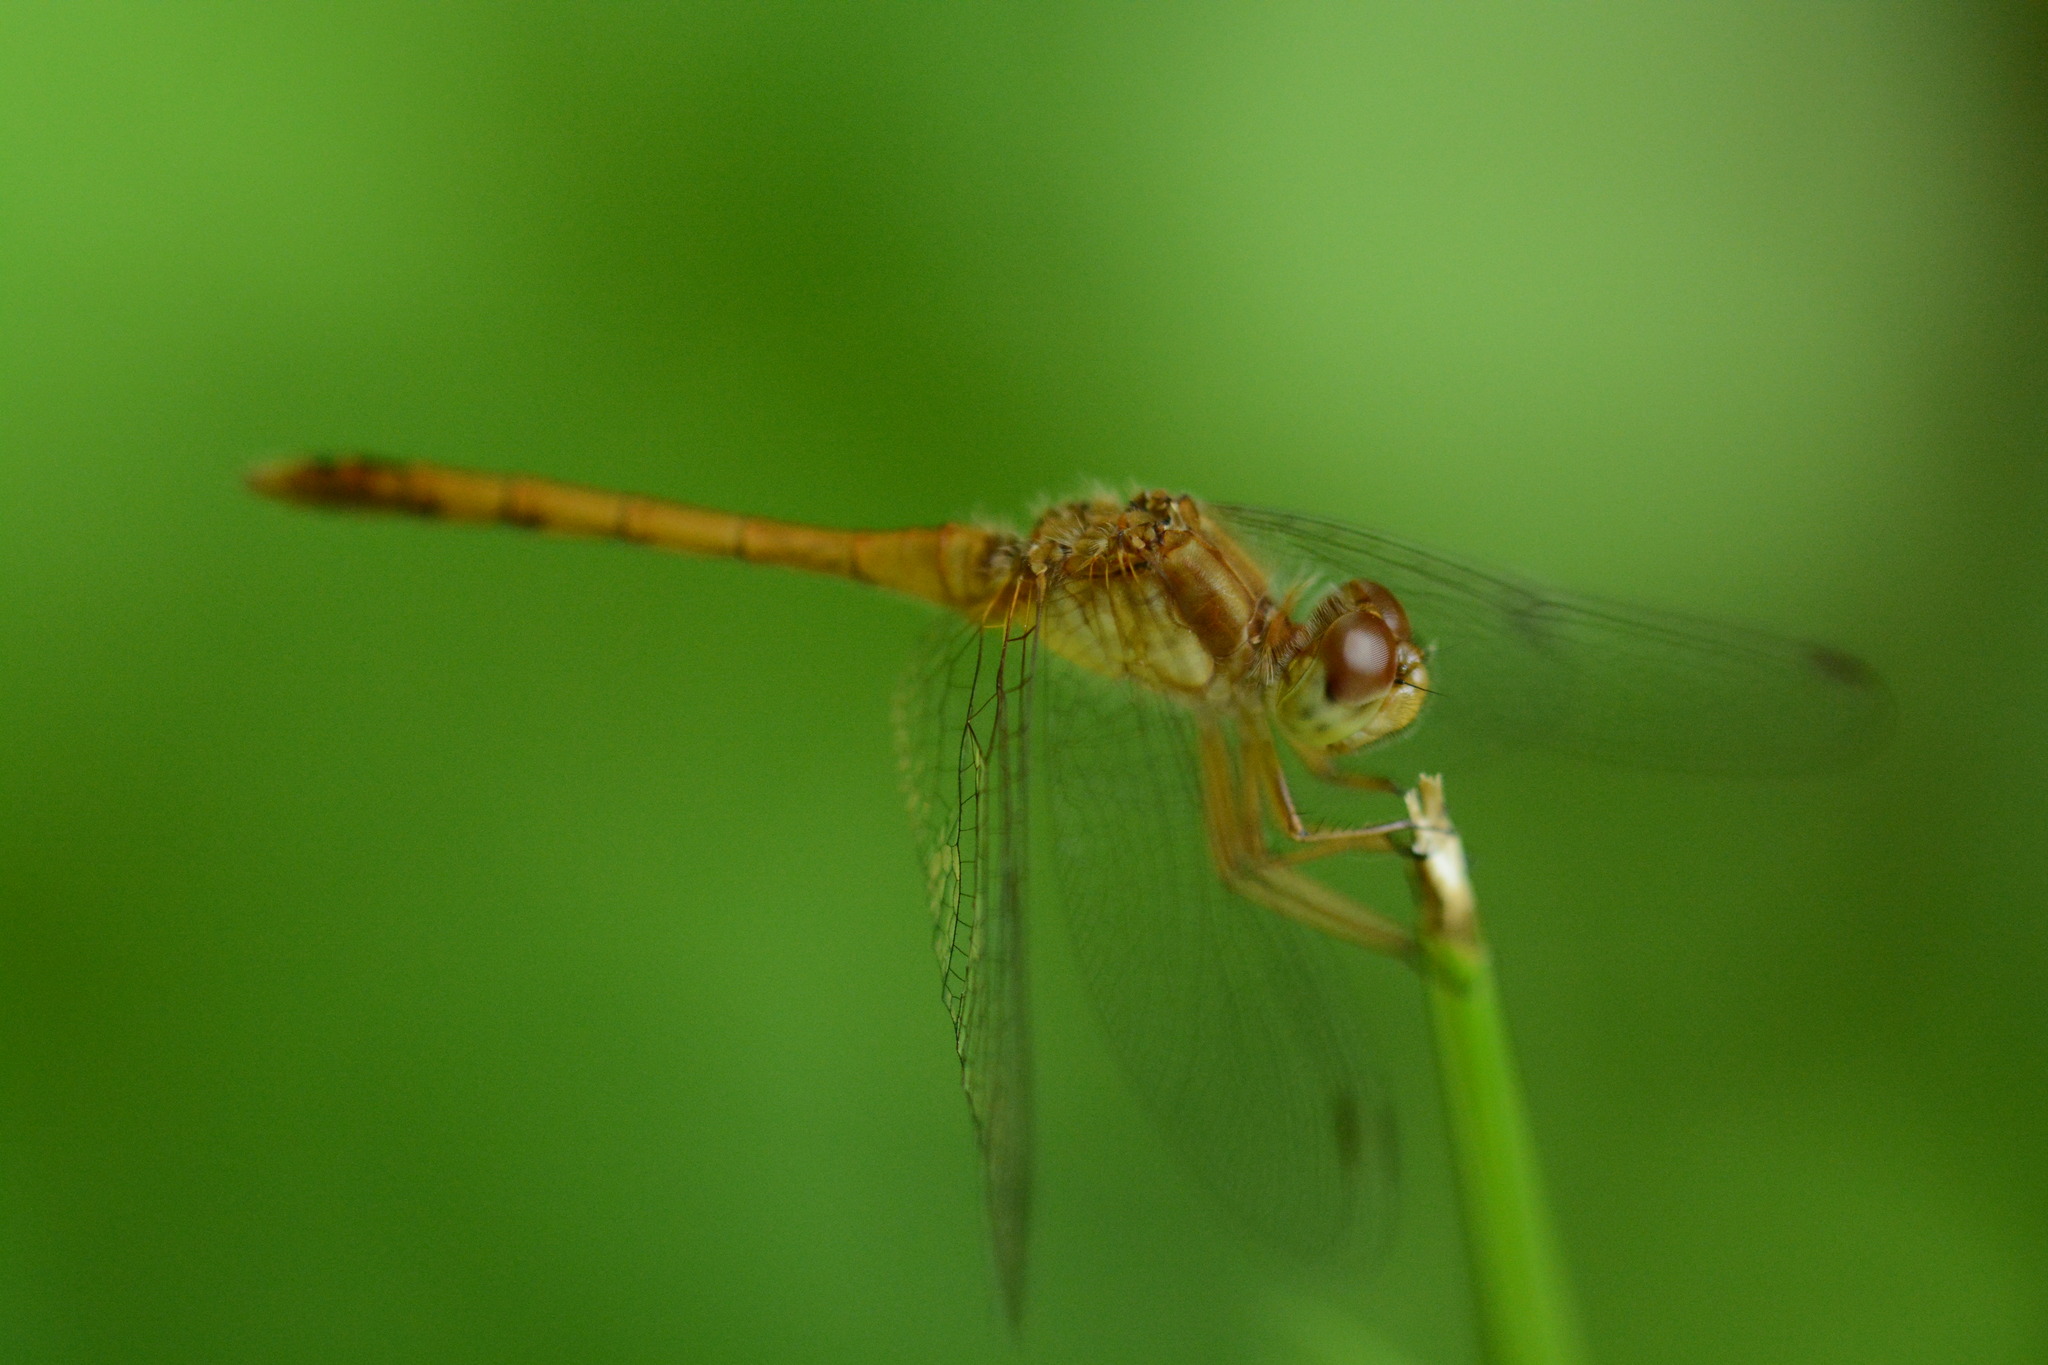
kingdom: Animalia
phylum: Arthropoda
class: Insecta
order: Odonata
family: Libellulidae
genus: Sympetrum
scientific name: Sympetrum vicinum
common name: Autumn meadowhawk
